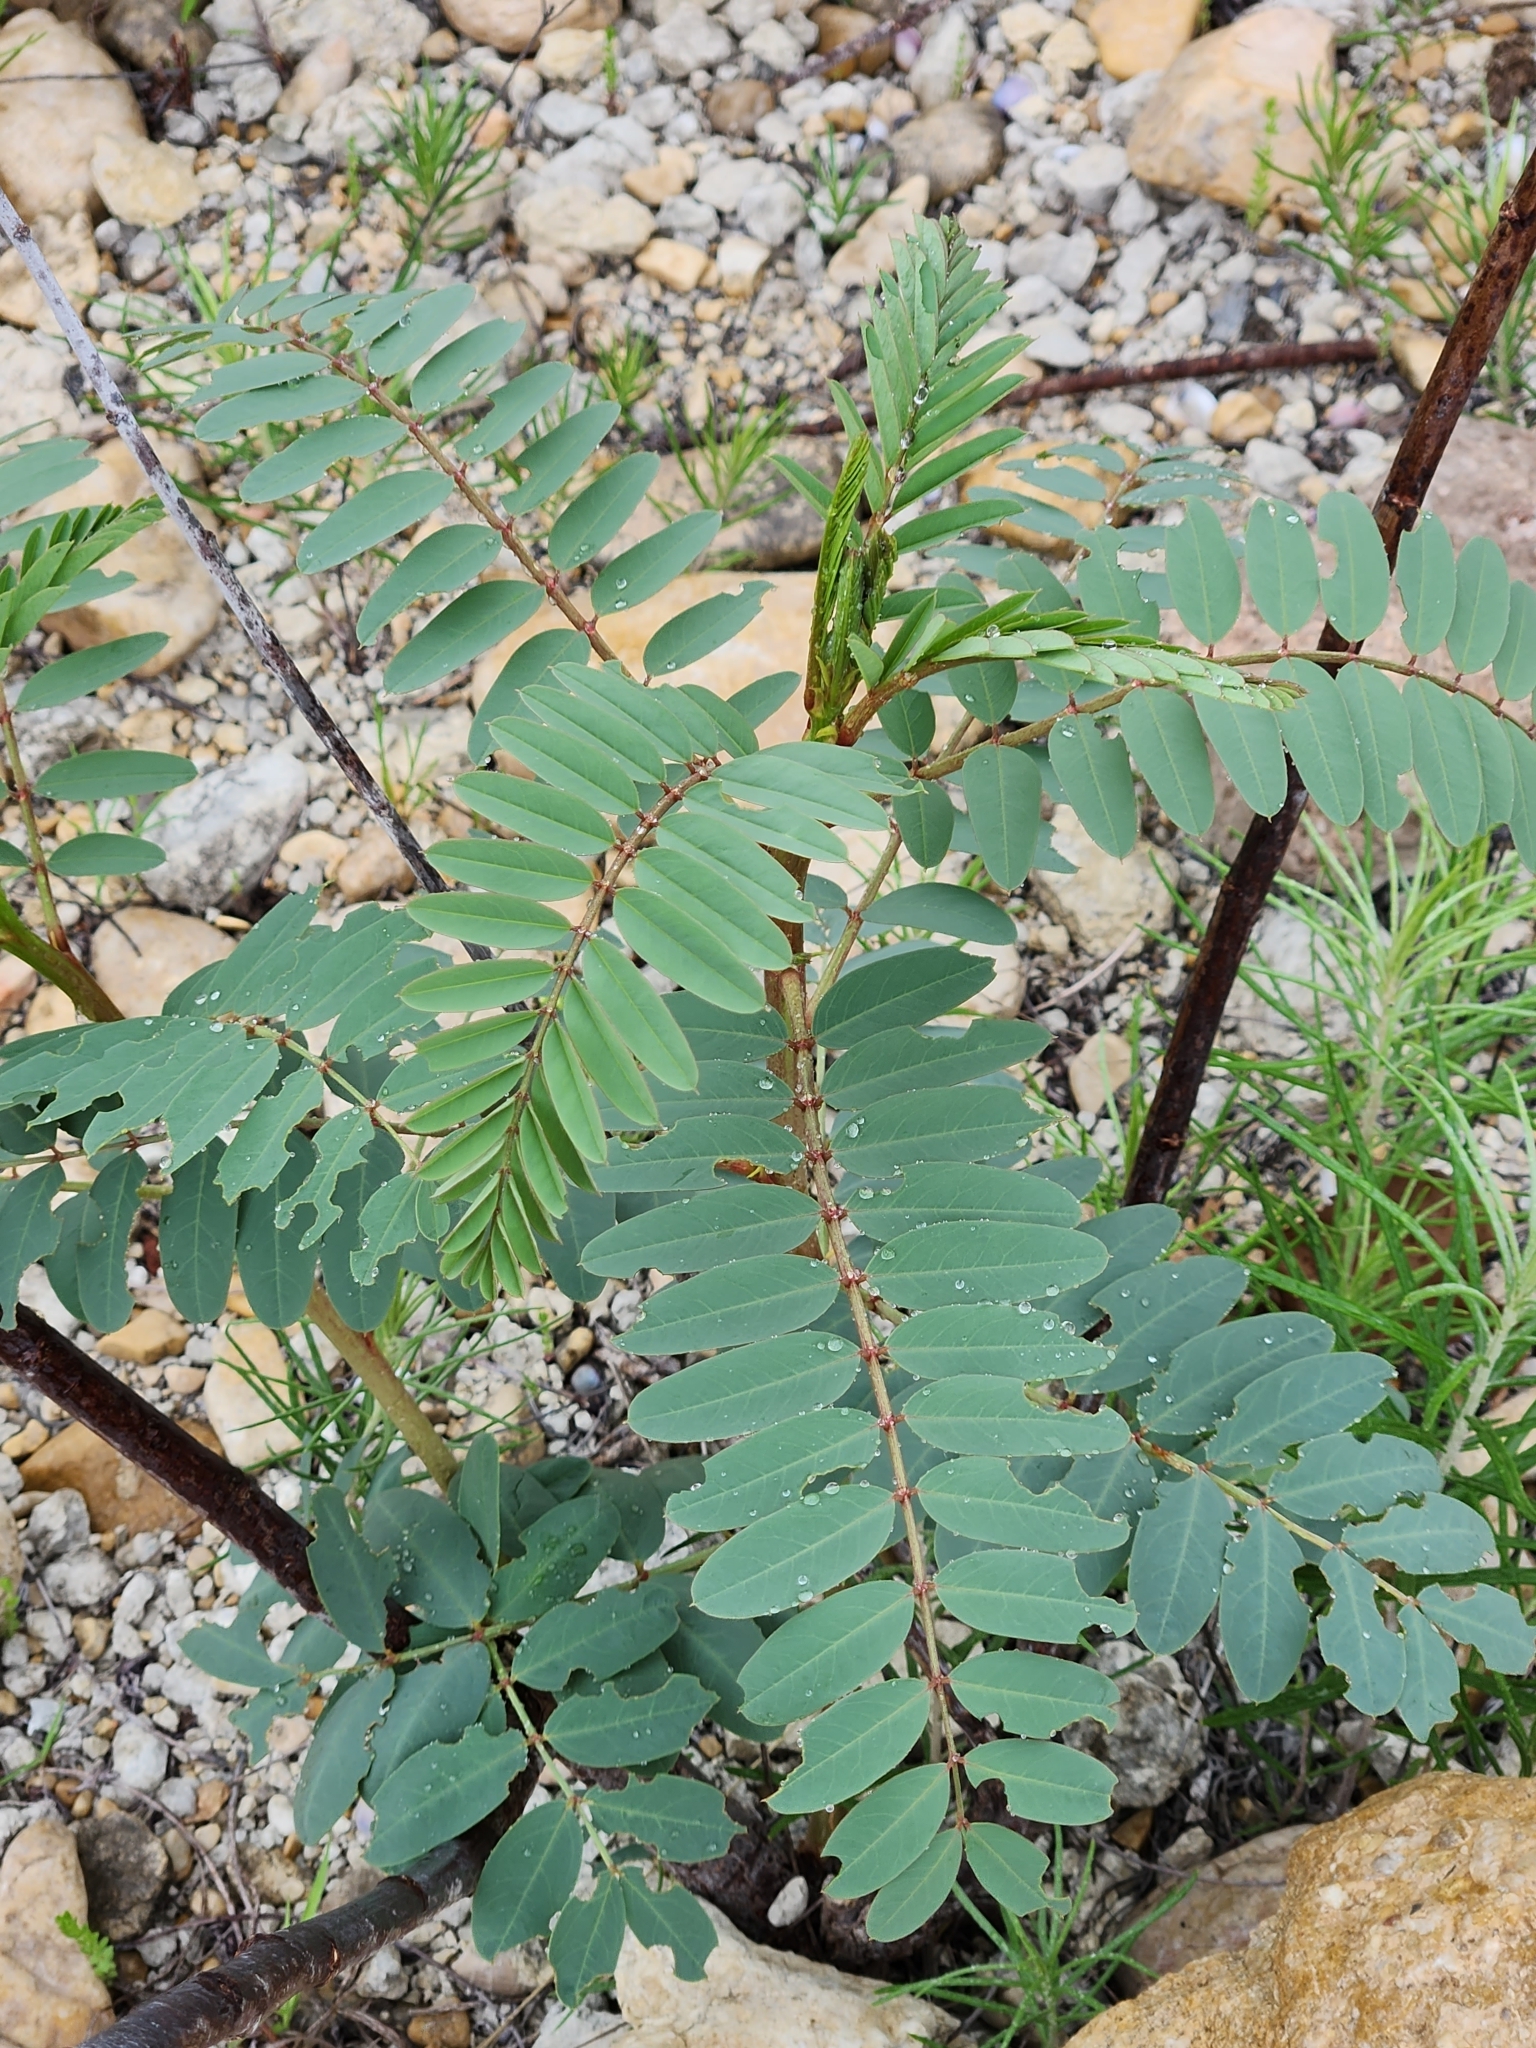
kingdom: Plantae
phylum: Tracheophyta
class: Magnoliopsida
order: Fabales
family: Fabaceae
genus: Sesbania
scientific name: Sesbania drummondii
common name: Poison-bean
